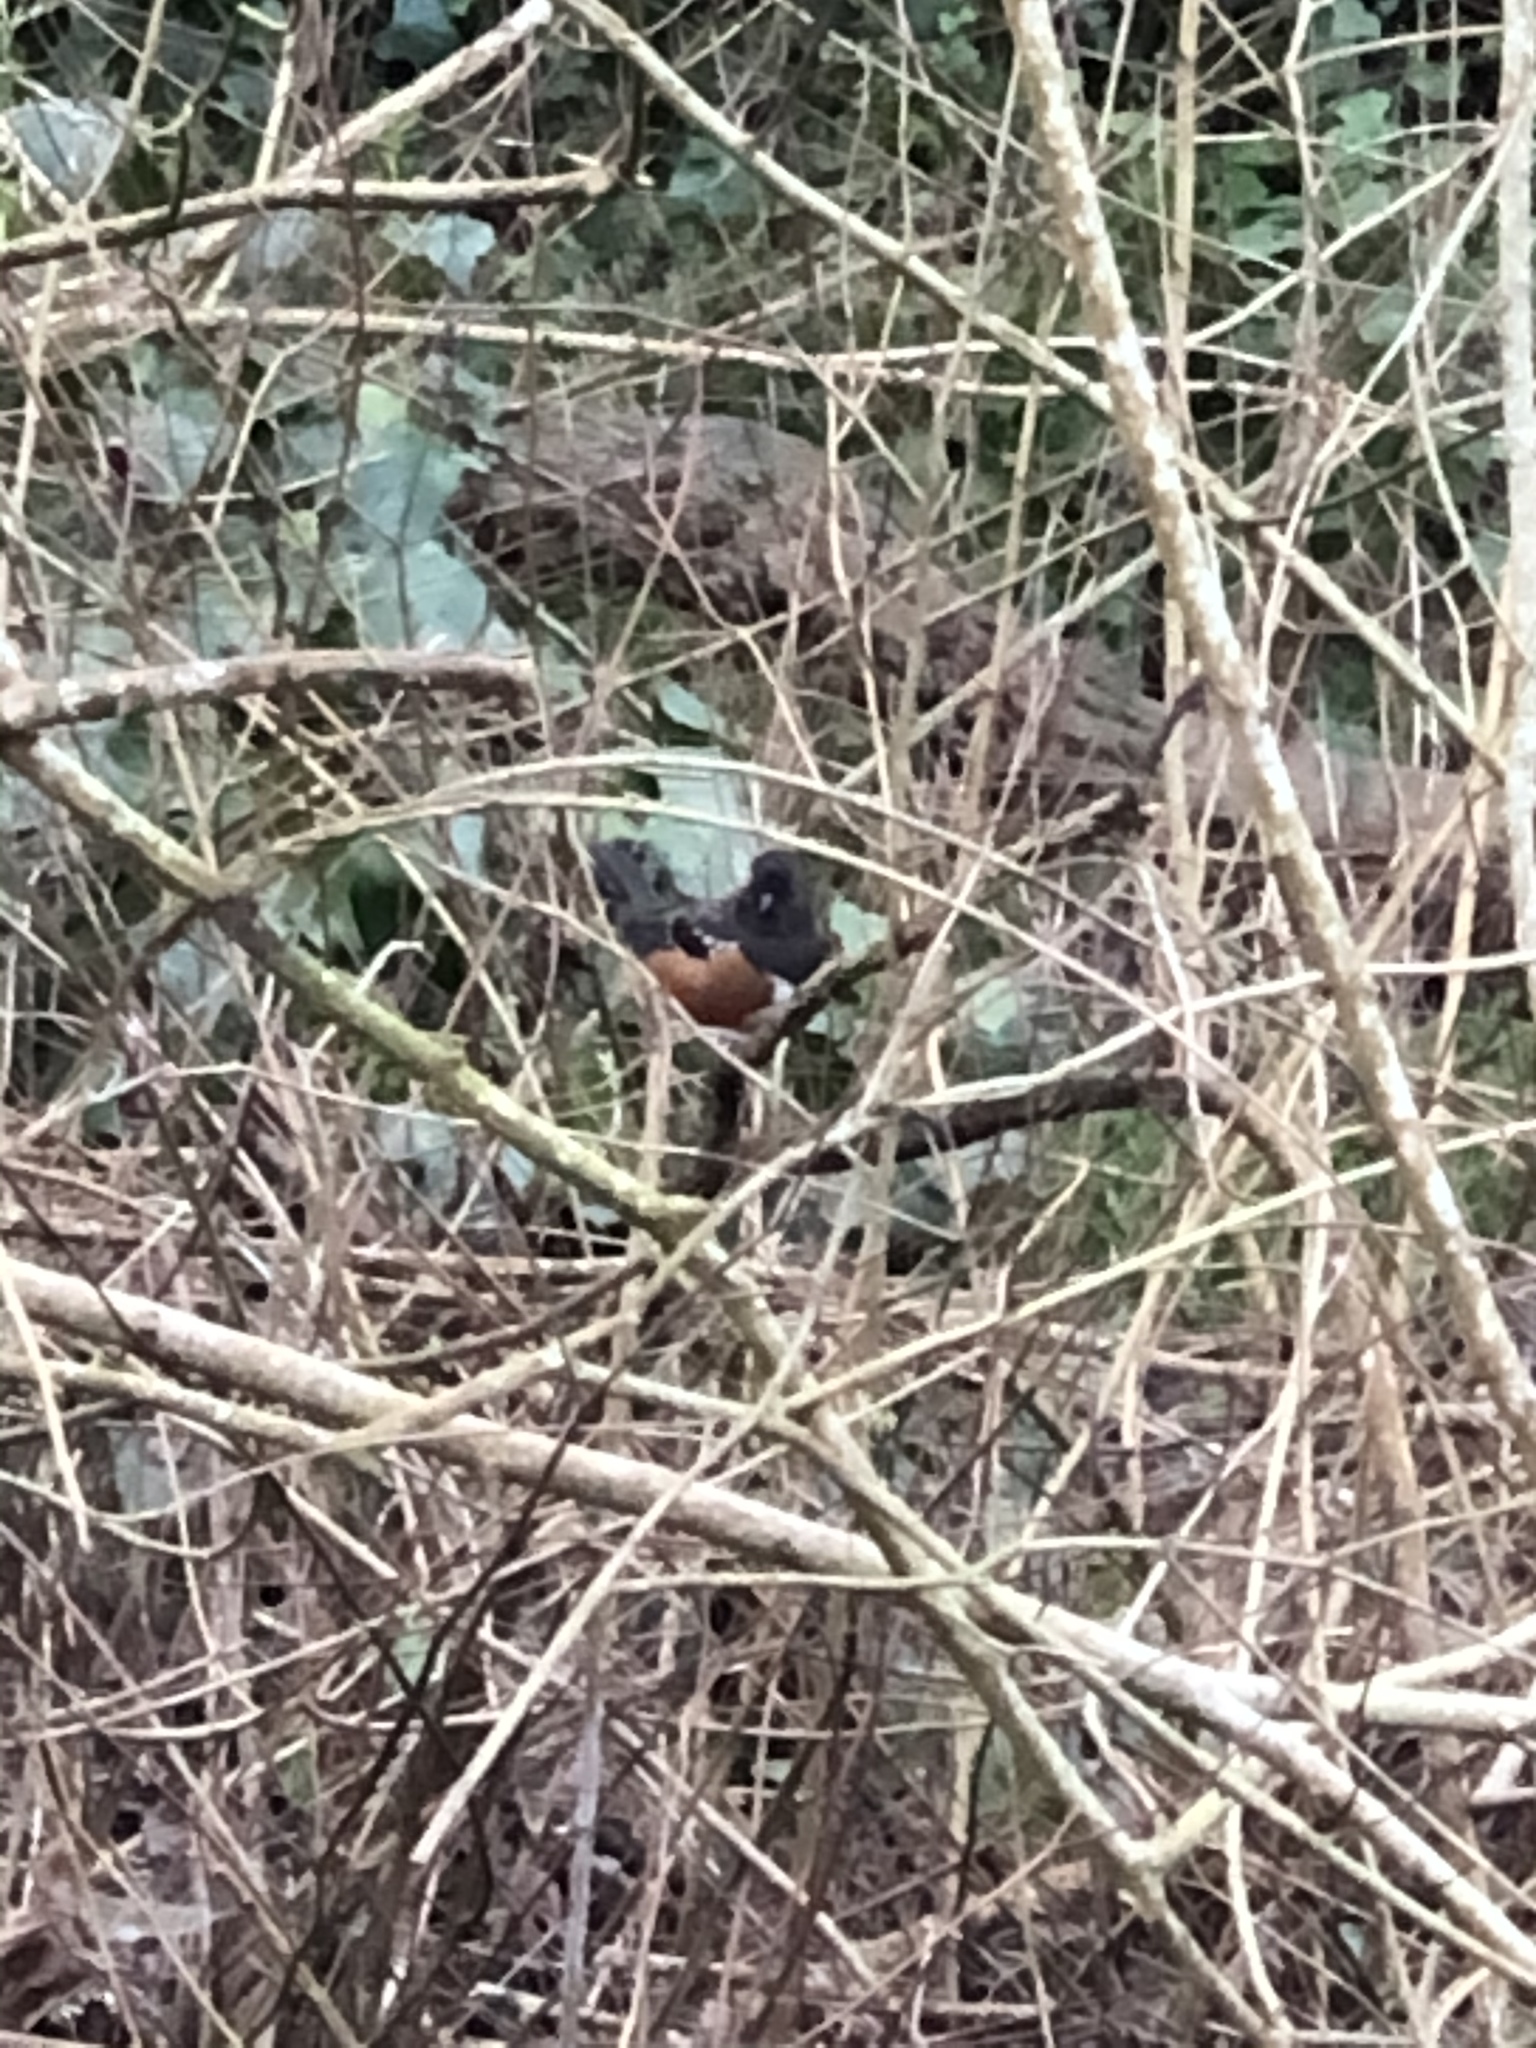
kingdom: Animalia
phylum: Chordata
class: Aves
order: Passeriformes
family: Passerellidae
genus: Pipilo
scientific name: Pipilo maculatus
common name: Spotted towhee
